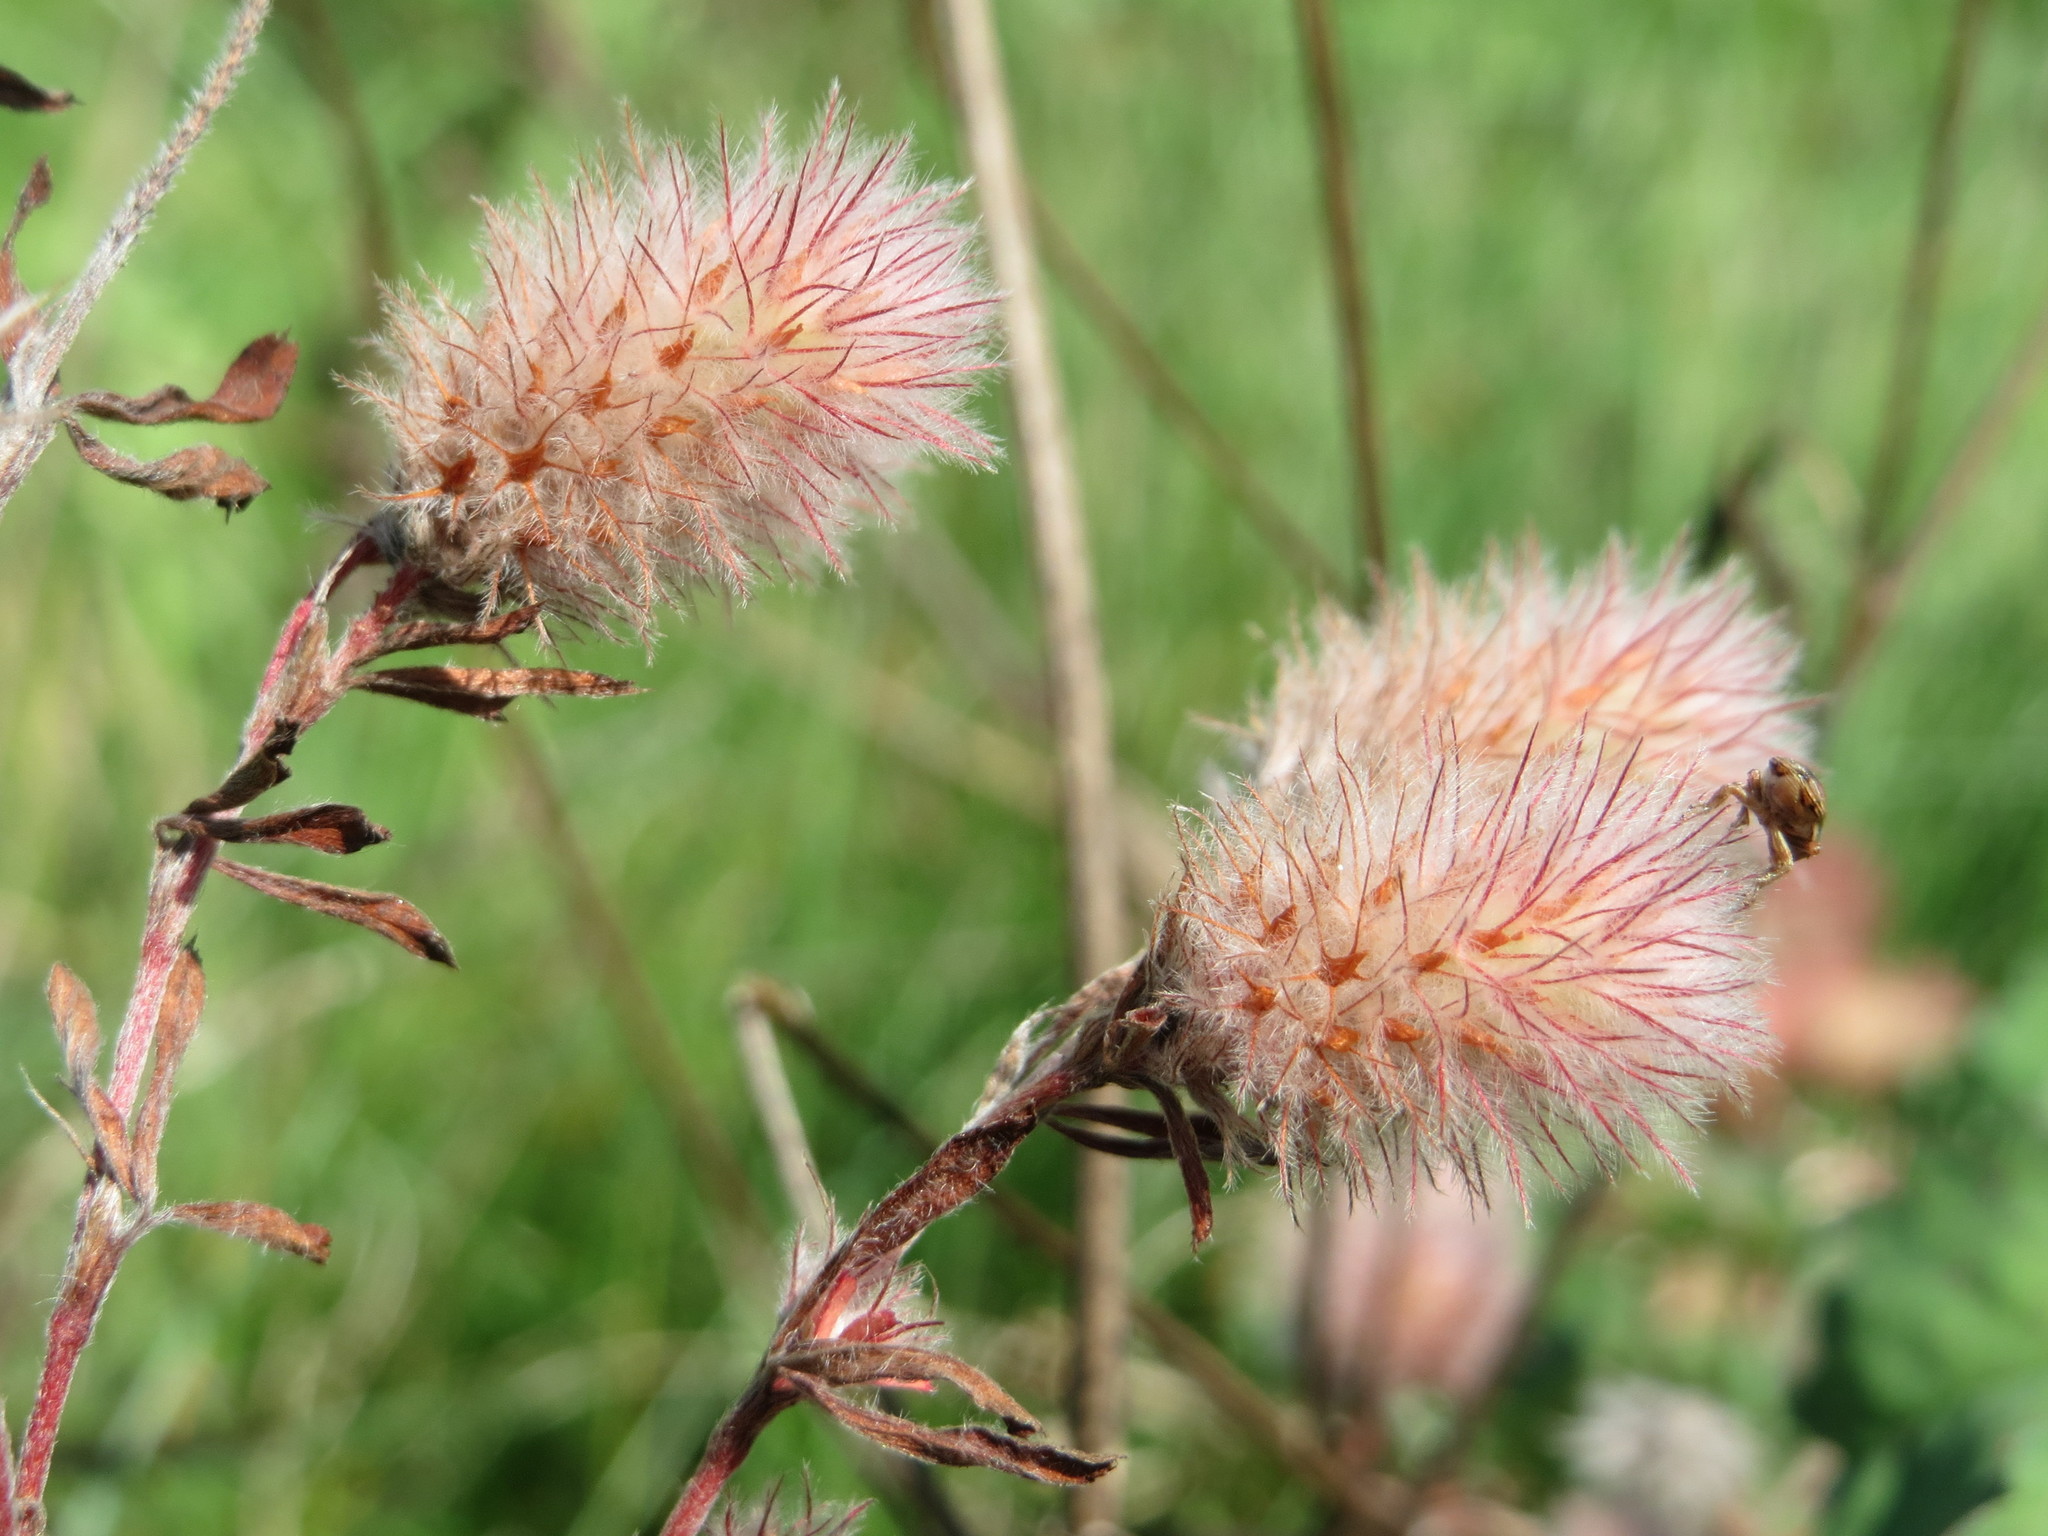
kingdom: Plantae
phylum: Tracheophyta
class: Magnoliopsida
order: Fabales
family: Fabaceae
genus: Trifolium
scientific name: Trifolium arvense
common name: Hare's-foot clover
